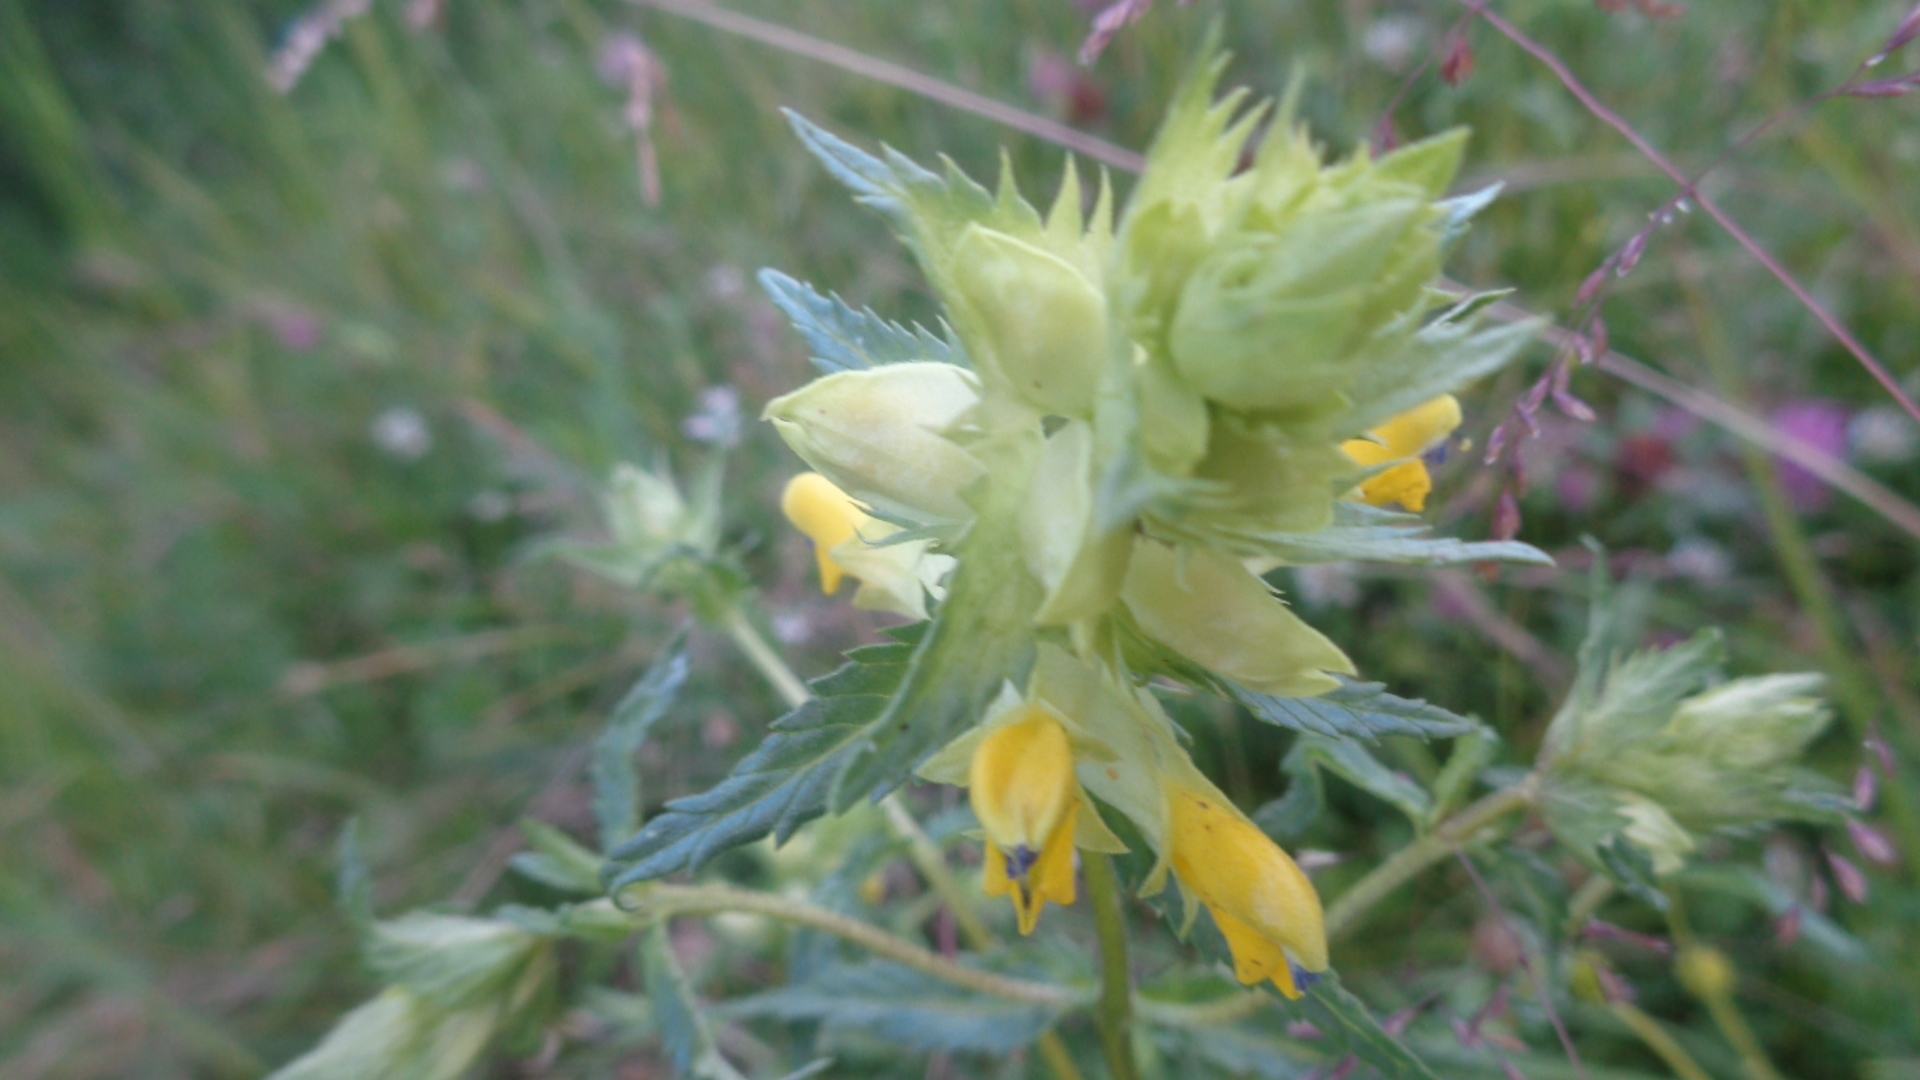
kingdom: Plantae
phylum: Tracheophyta
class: Magnoliopsida
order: Lamiales
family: Orobanchaceae
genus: Rhinanthus
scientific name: Rhinanthus serotinus
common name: Late-flowering yellow rattle
